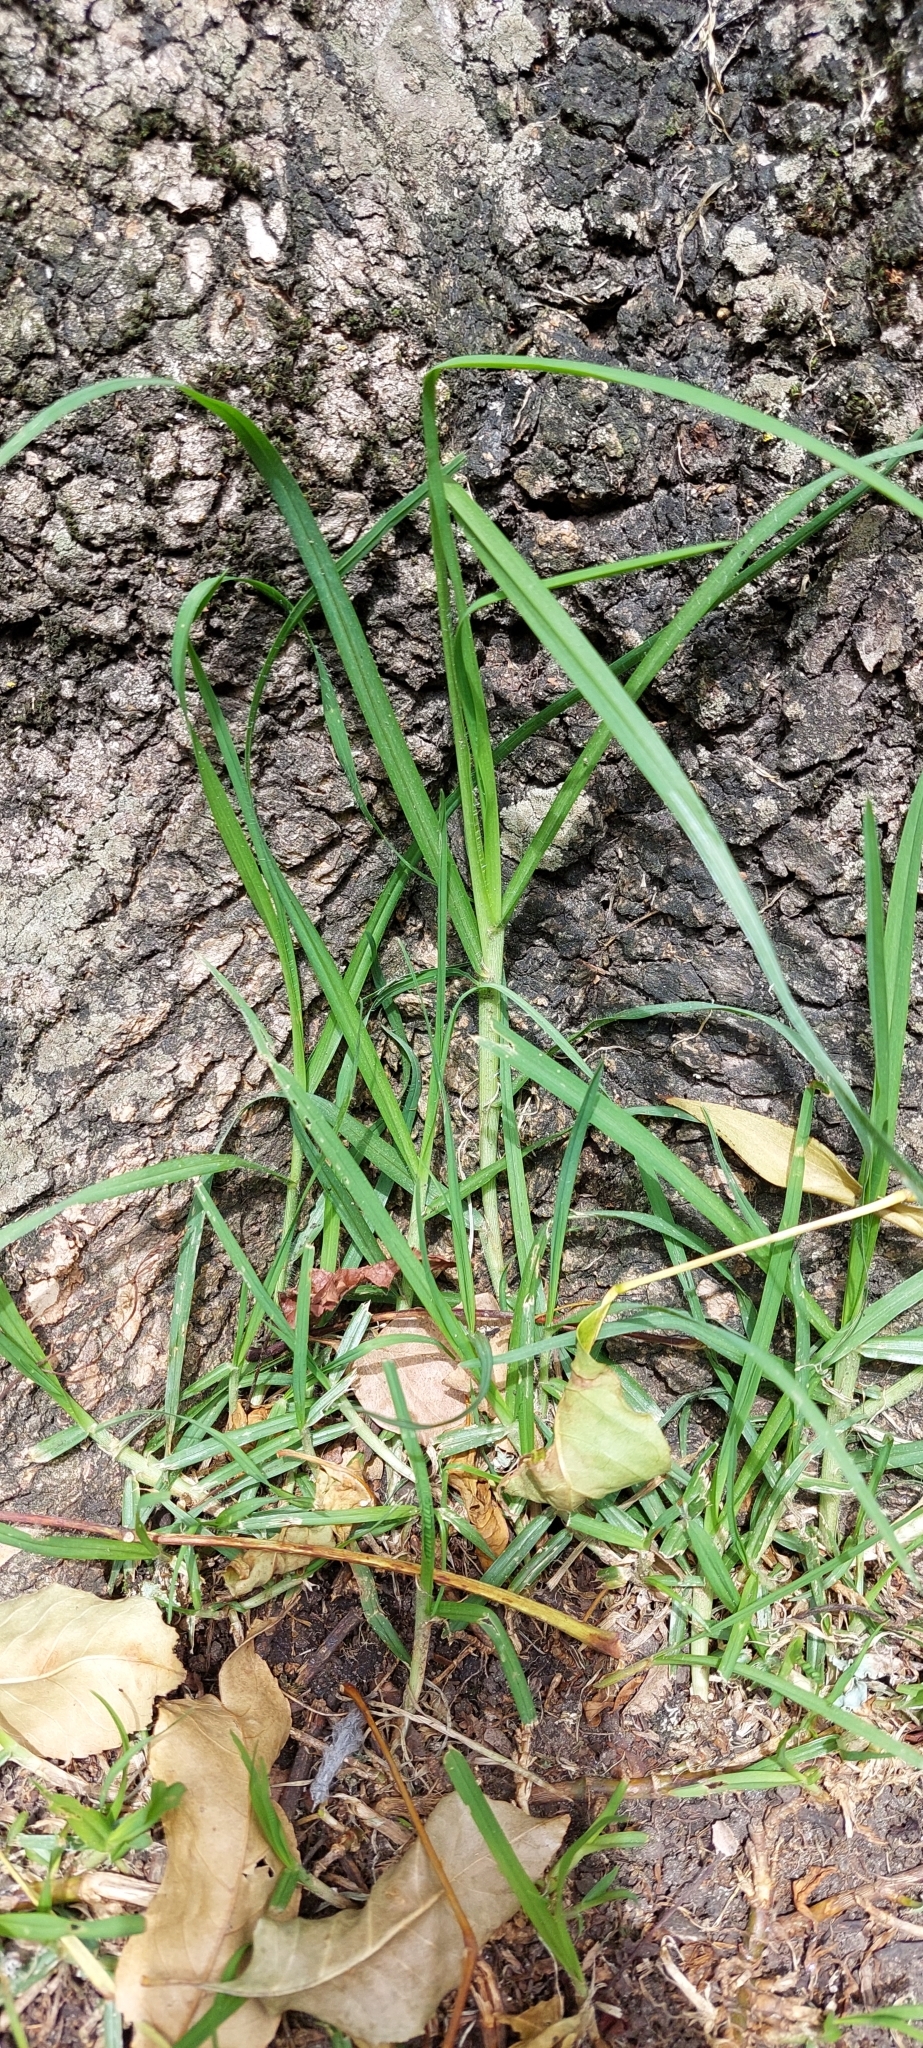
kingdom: Plantae
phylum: Tracheophyta
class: Liliopsida
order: Poales
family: Poaceae
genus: Cenchrus
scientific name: Cenchrus clandestinus
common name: Kikuyugrass
